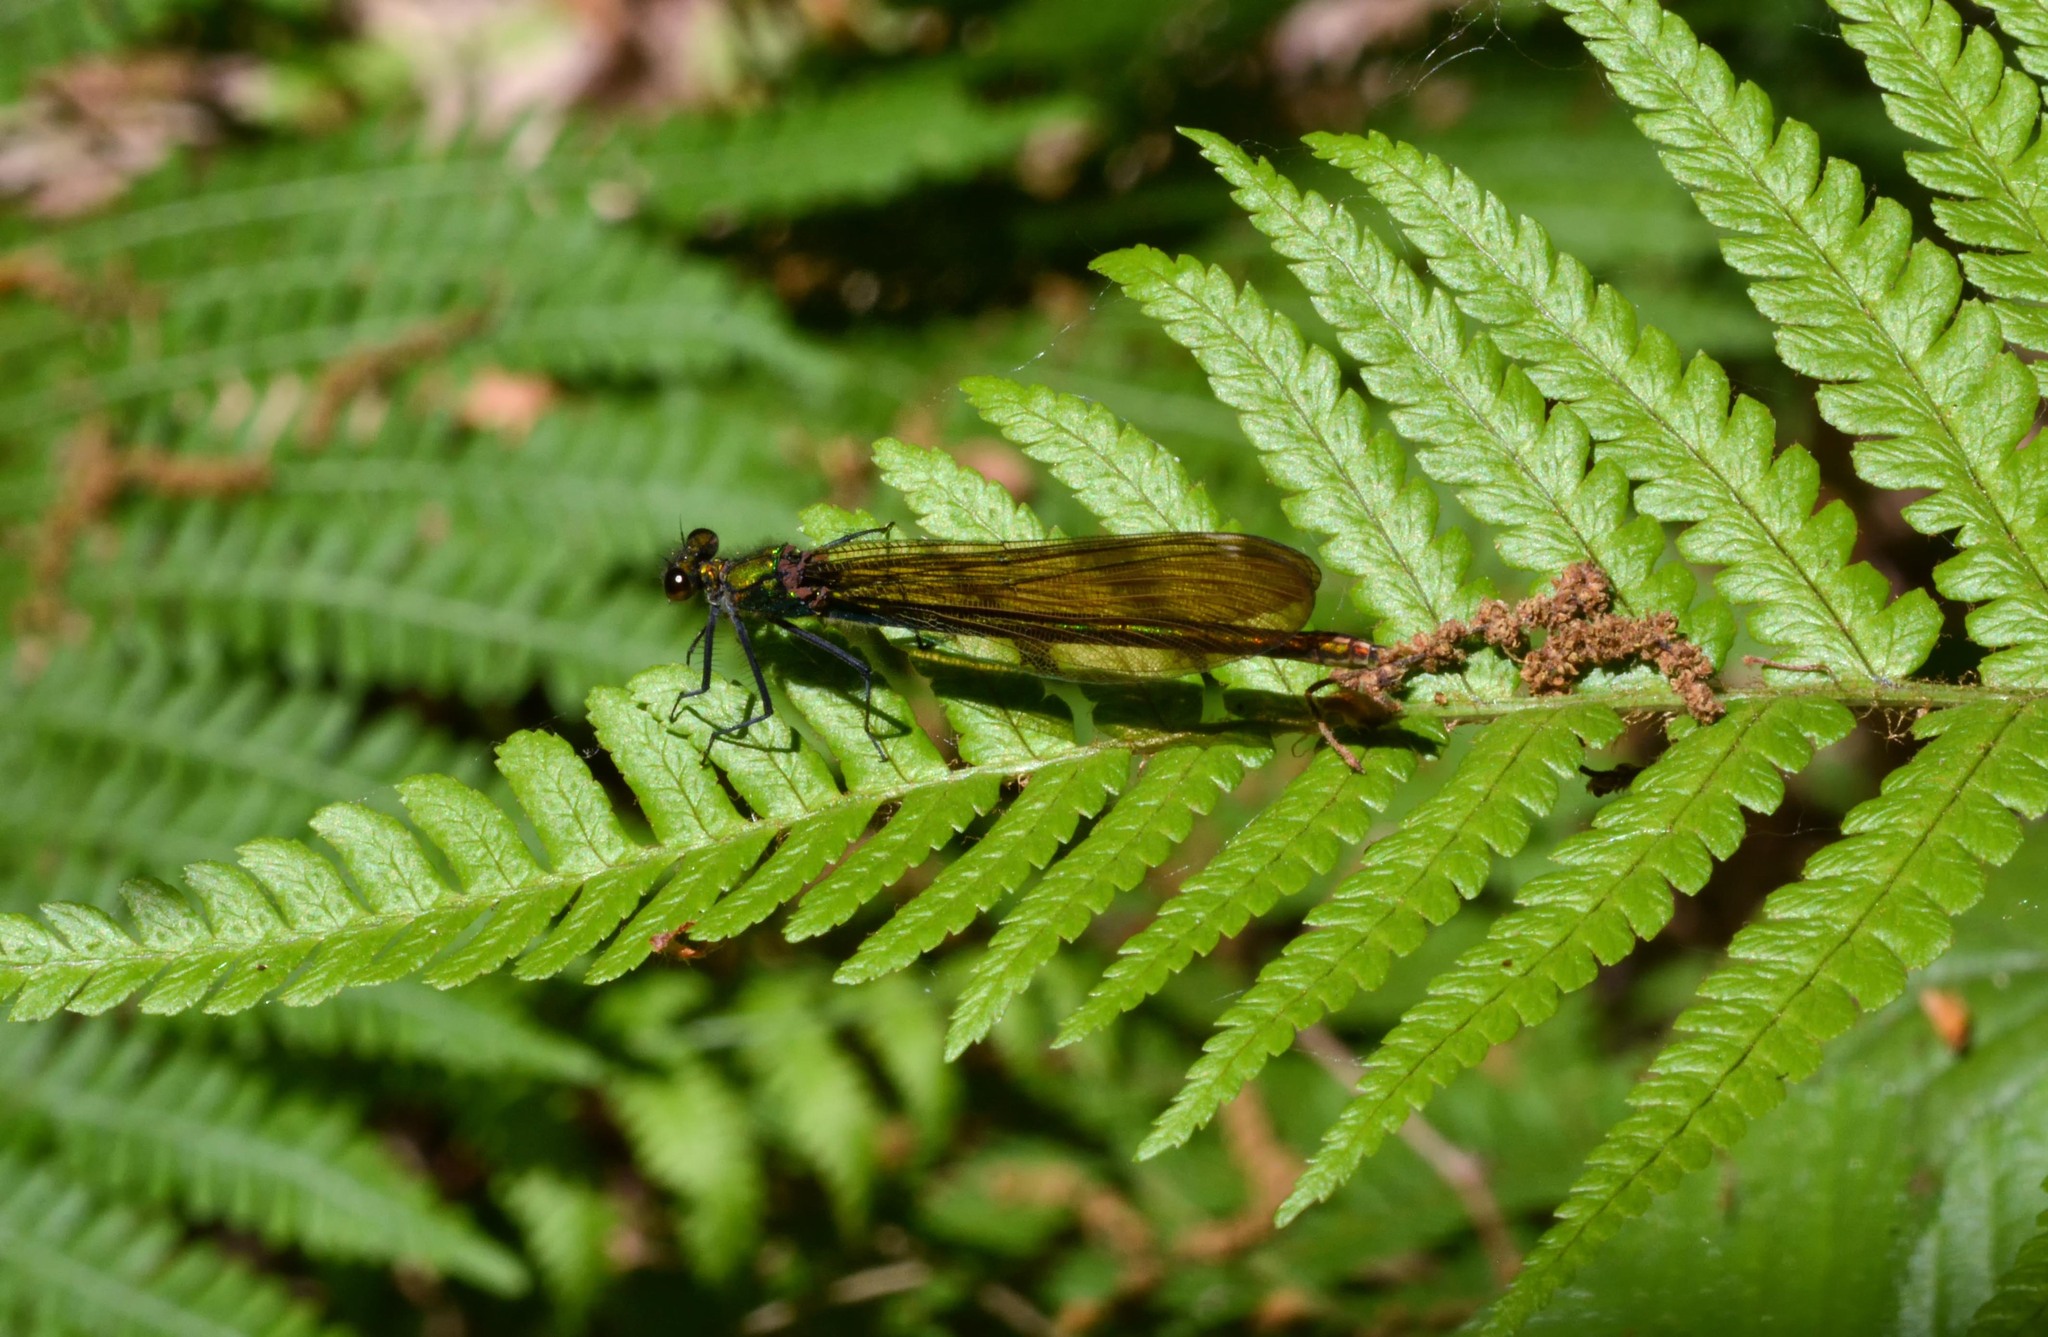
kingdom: Animalia
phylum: Arthropoda
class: Insecta
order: Odonata
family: Calopterygidae
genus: Calopteryx
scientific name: Calopteryx virgo
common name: Beautiful demoiselle
